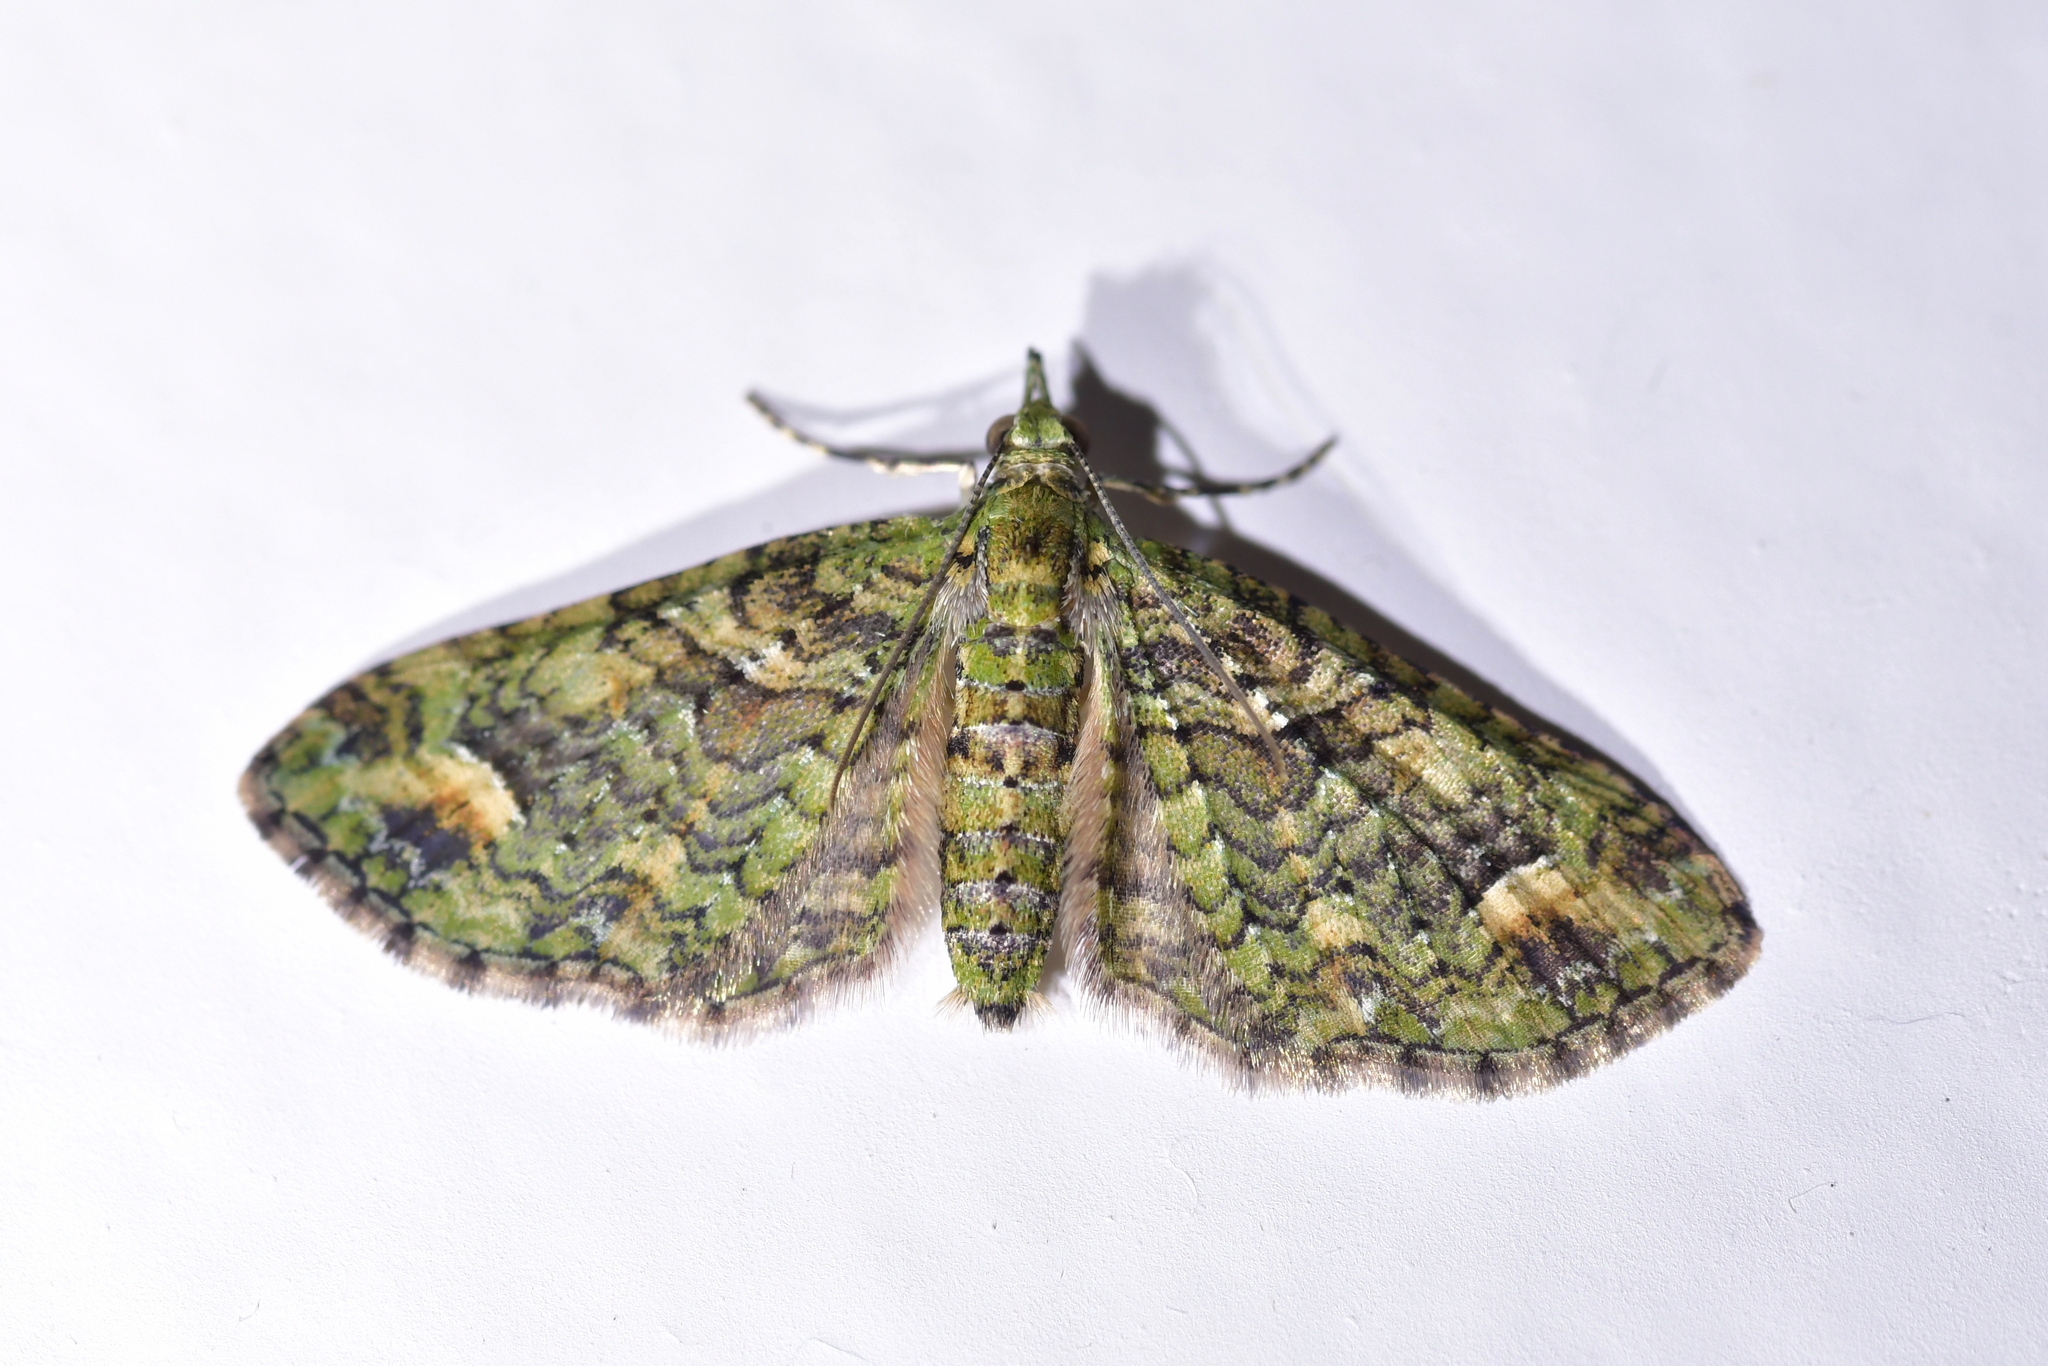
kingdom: Animalia
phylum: Arthropoda
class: Insecta
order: Lepidoptera
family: Geometridae
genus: Idaea
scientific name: Idaea mutanda
